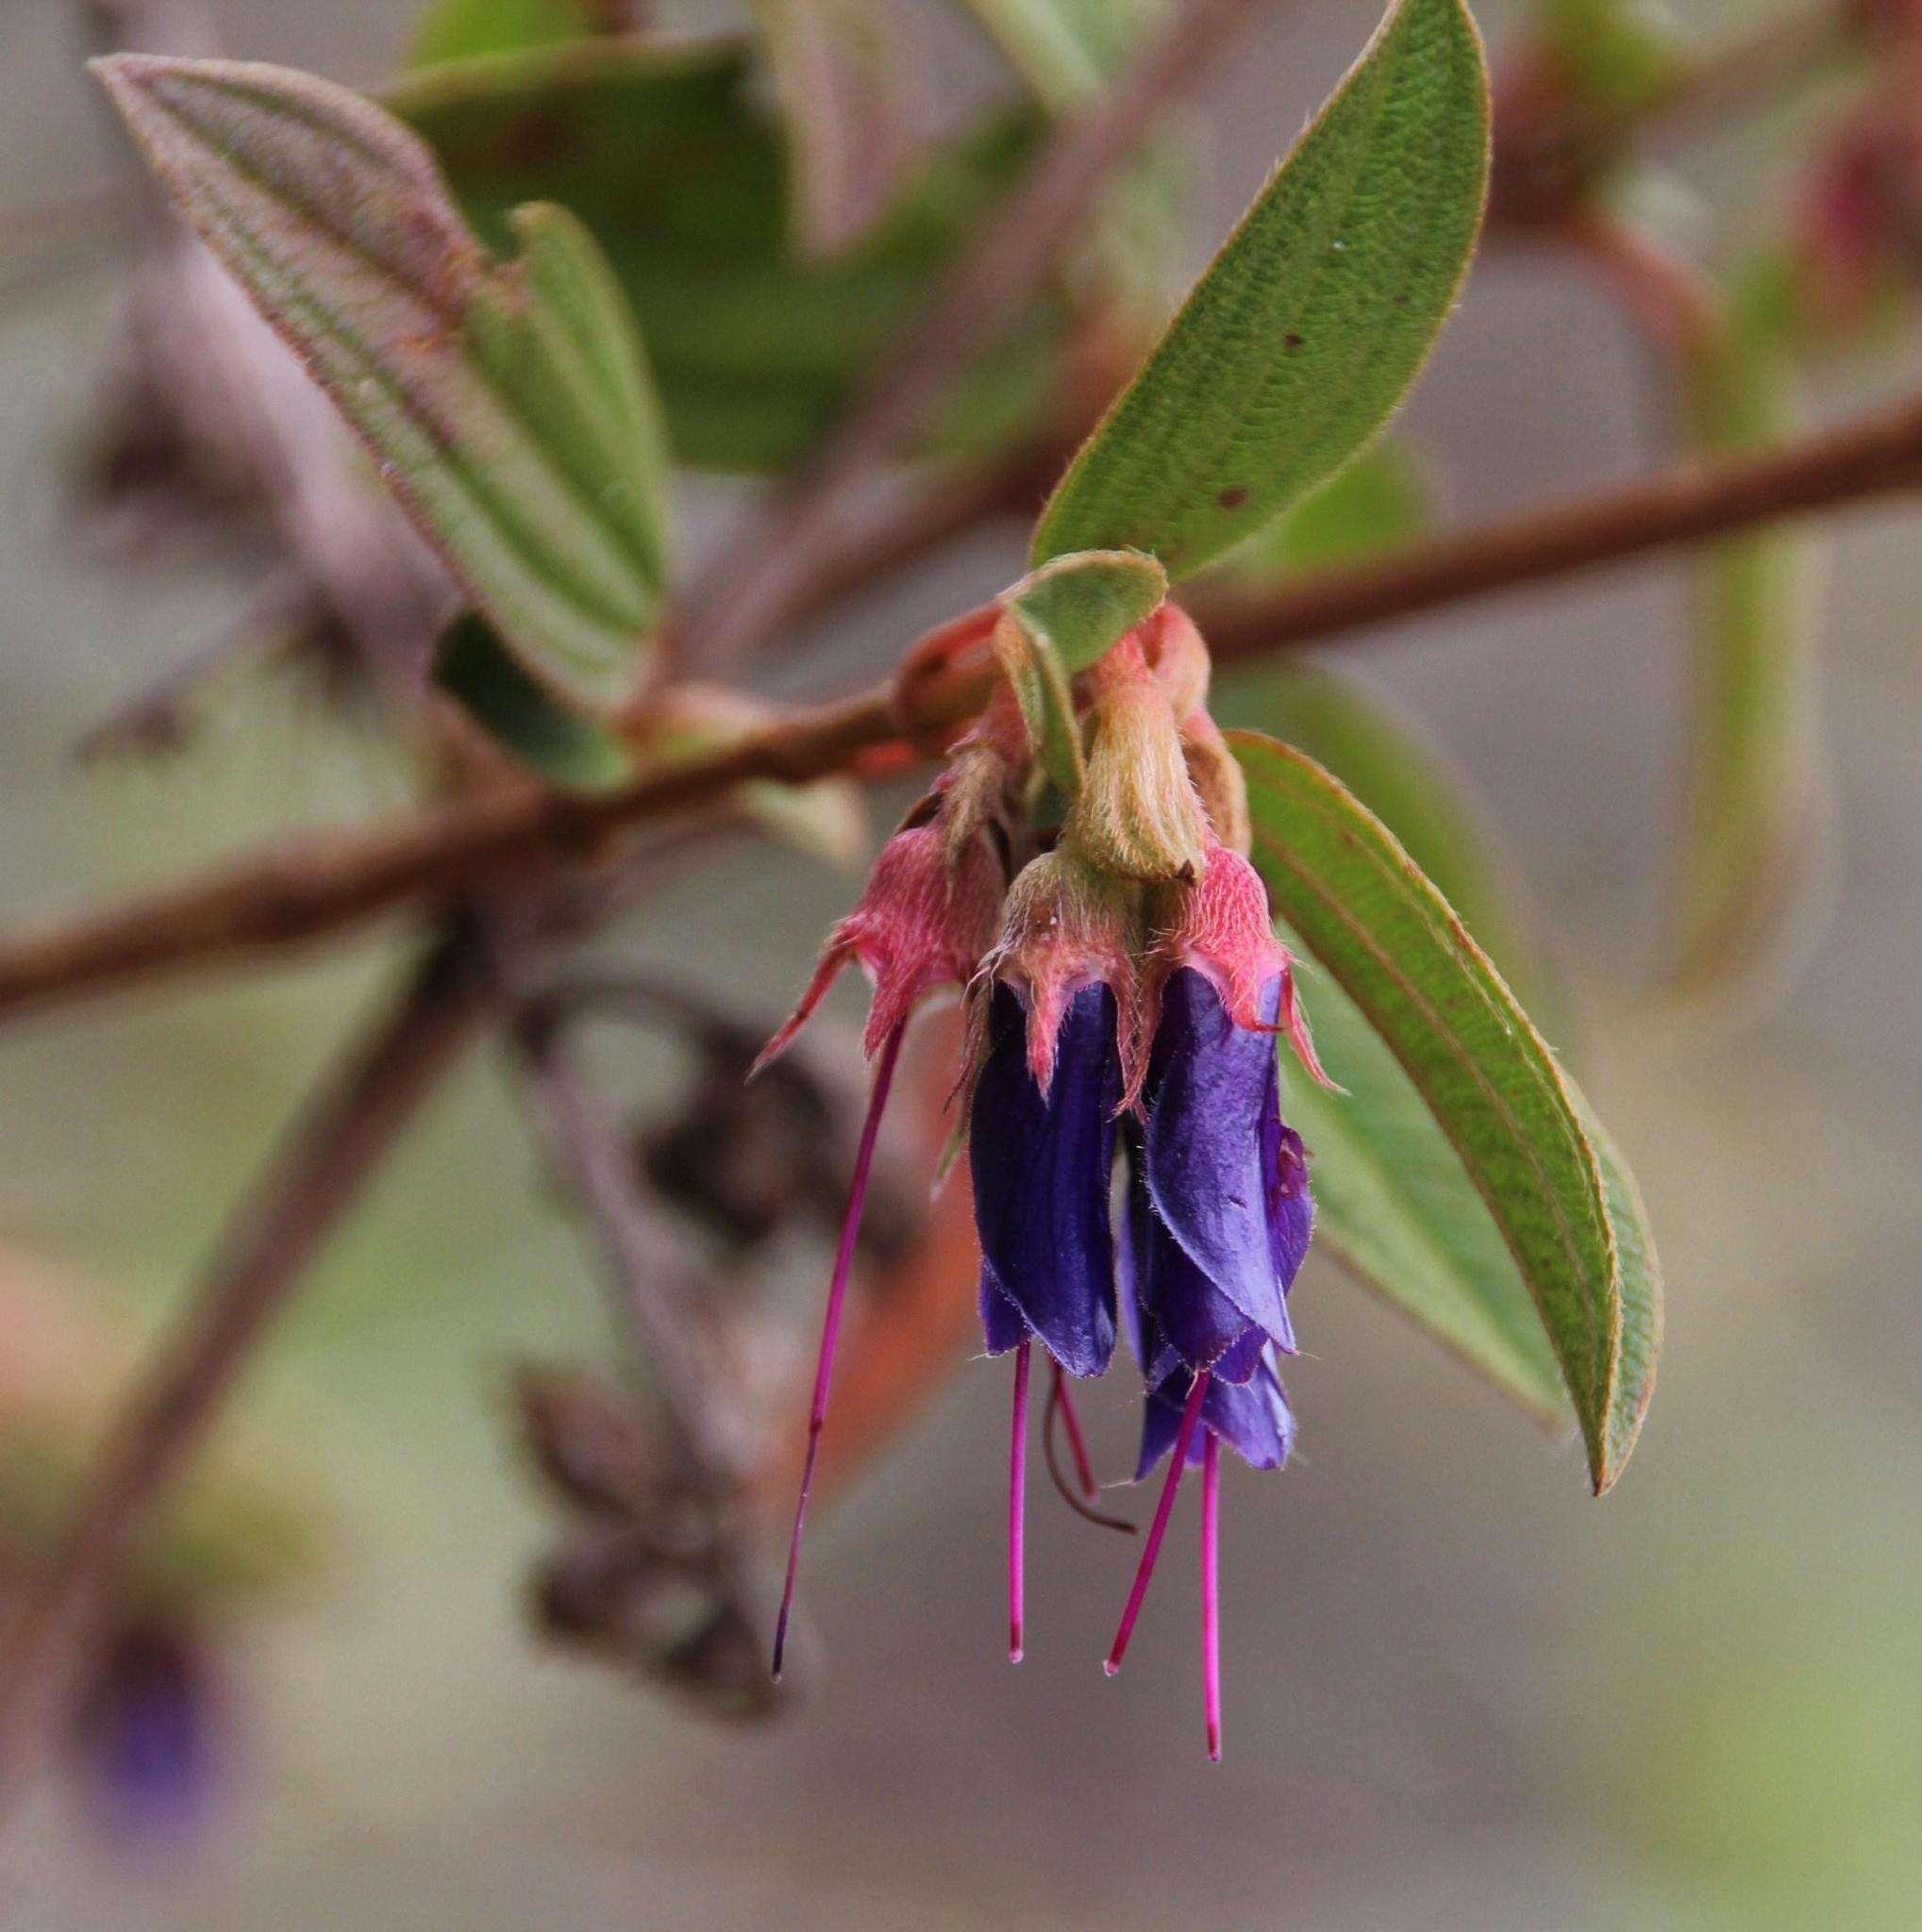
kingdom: Plantae
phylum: Tracheophyta
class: Magnoliopsida
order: Myrtales
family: Melastomataceae
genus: Brachyotum
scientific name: Brachyotum grisebachii
